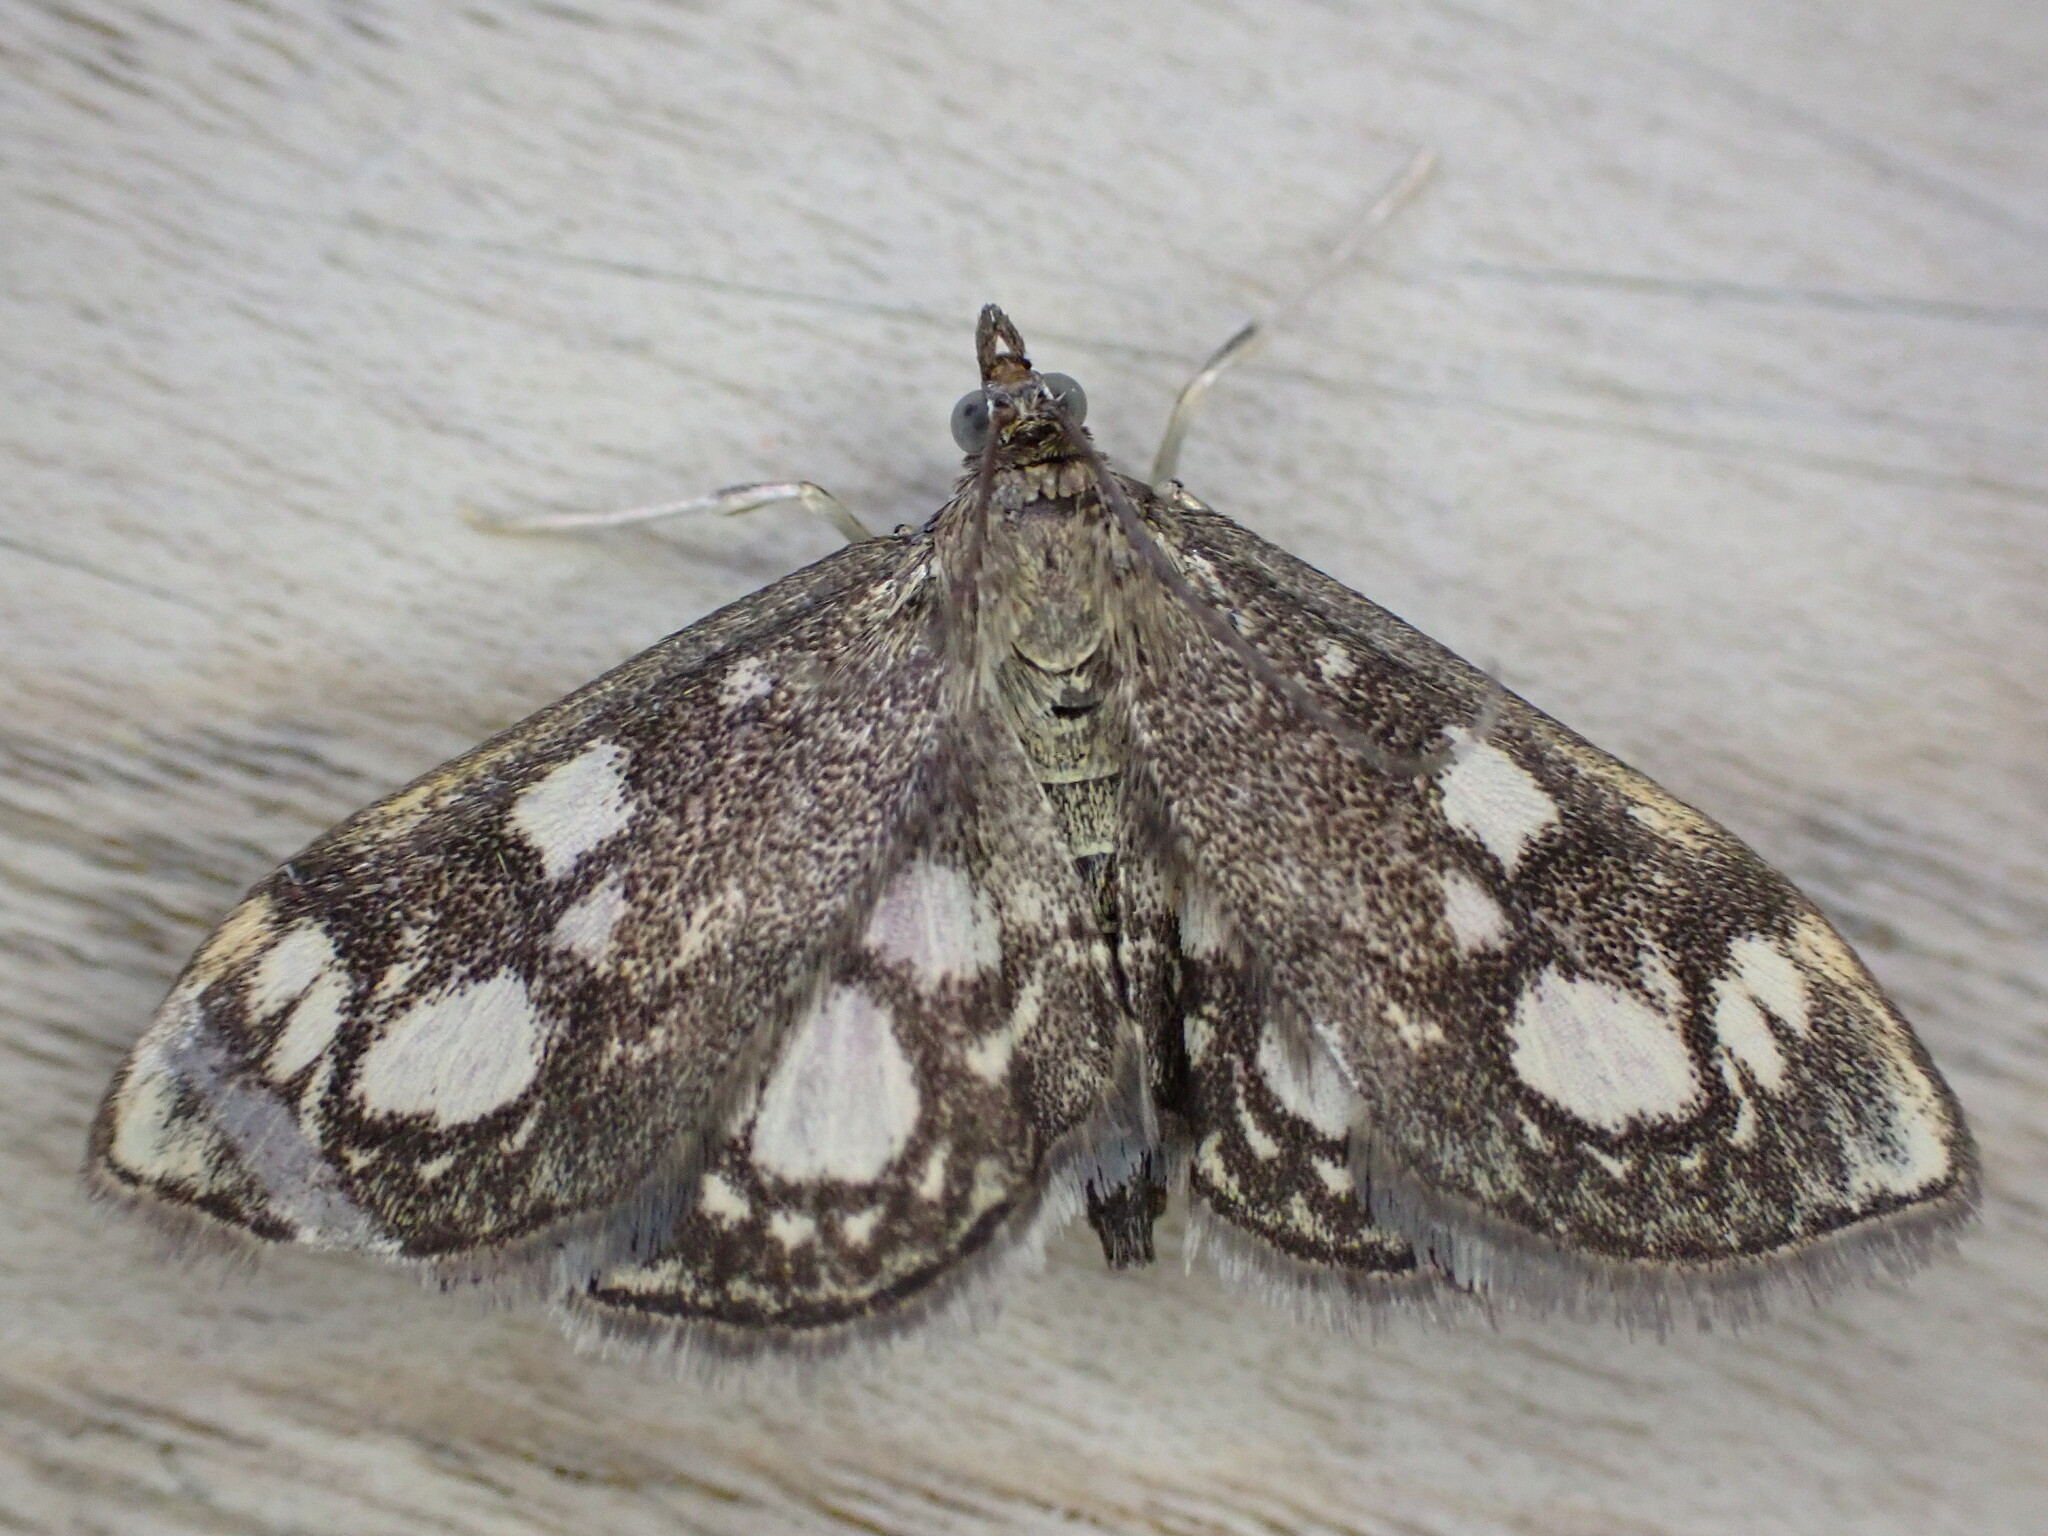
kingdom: Animalia
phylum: Arthropoda
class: Insecta
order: Lepidoptera
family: Crambidae
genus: Anania
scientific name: Anania coronata
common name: Elder pearl
